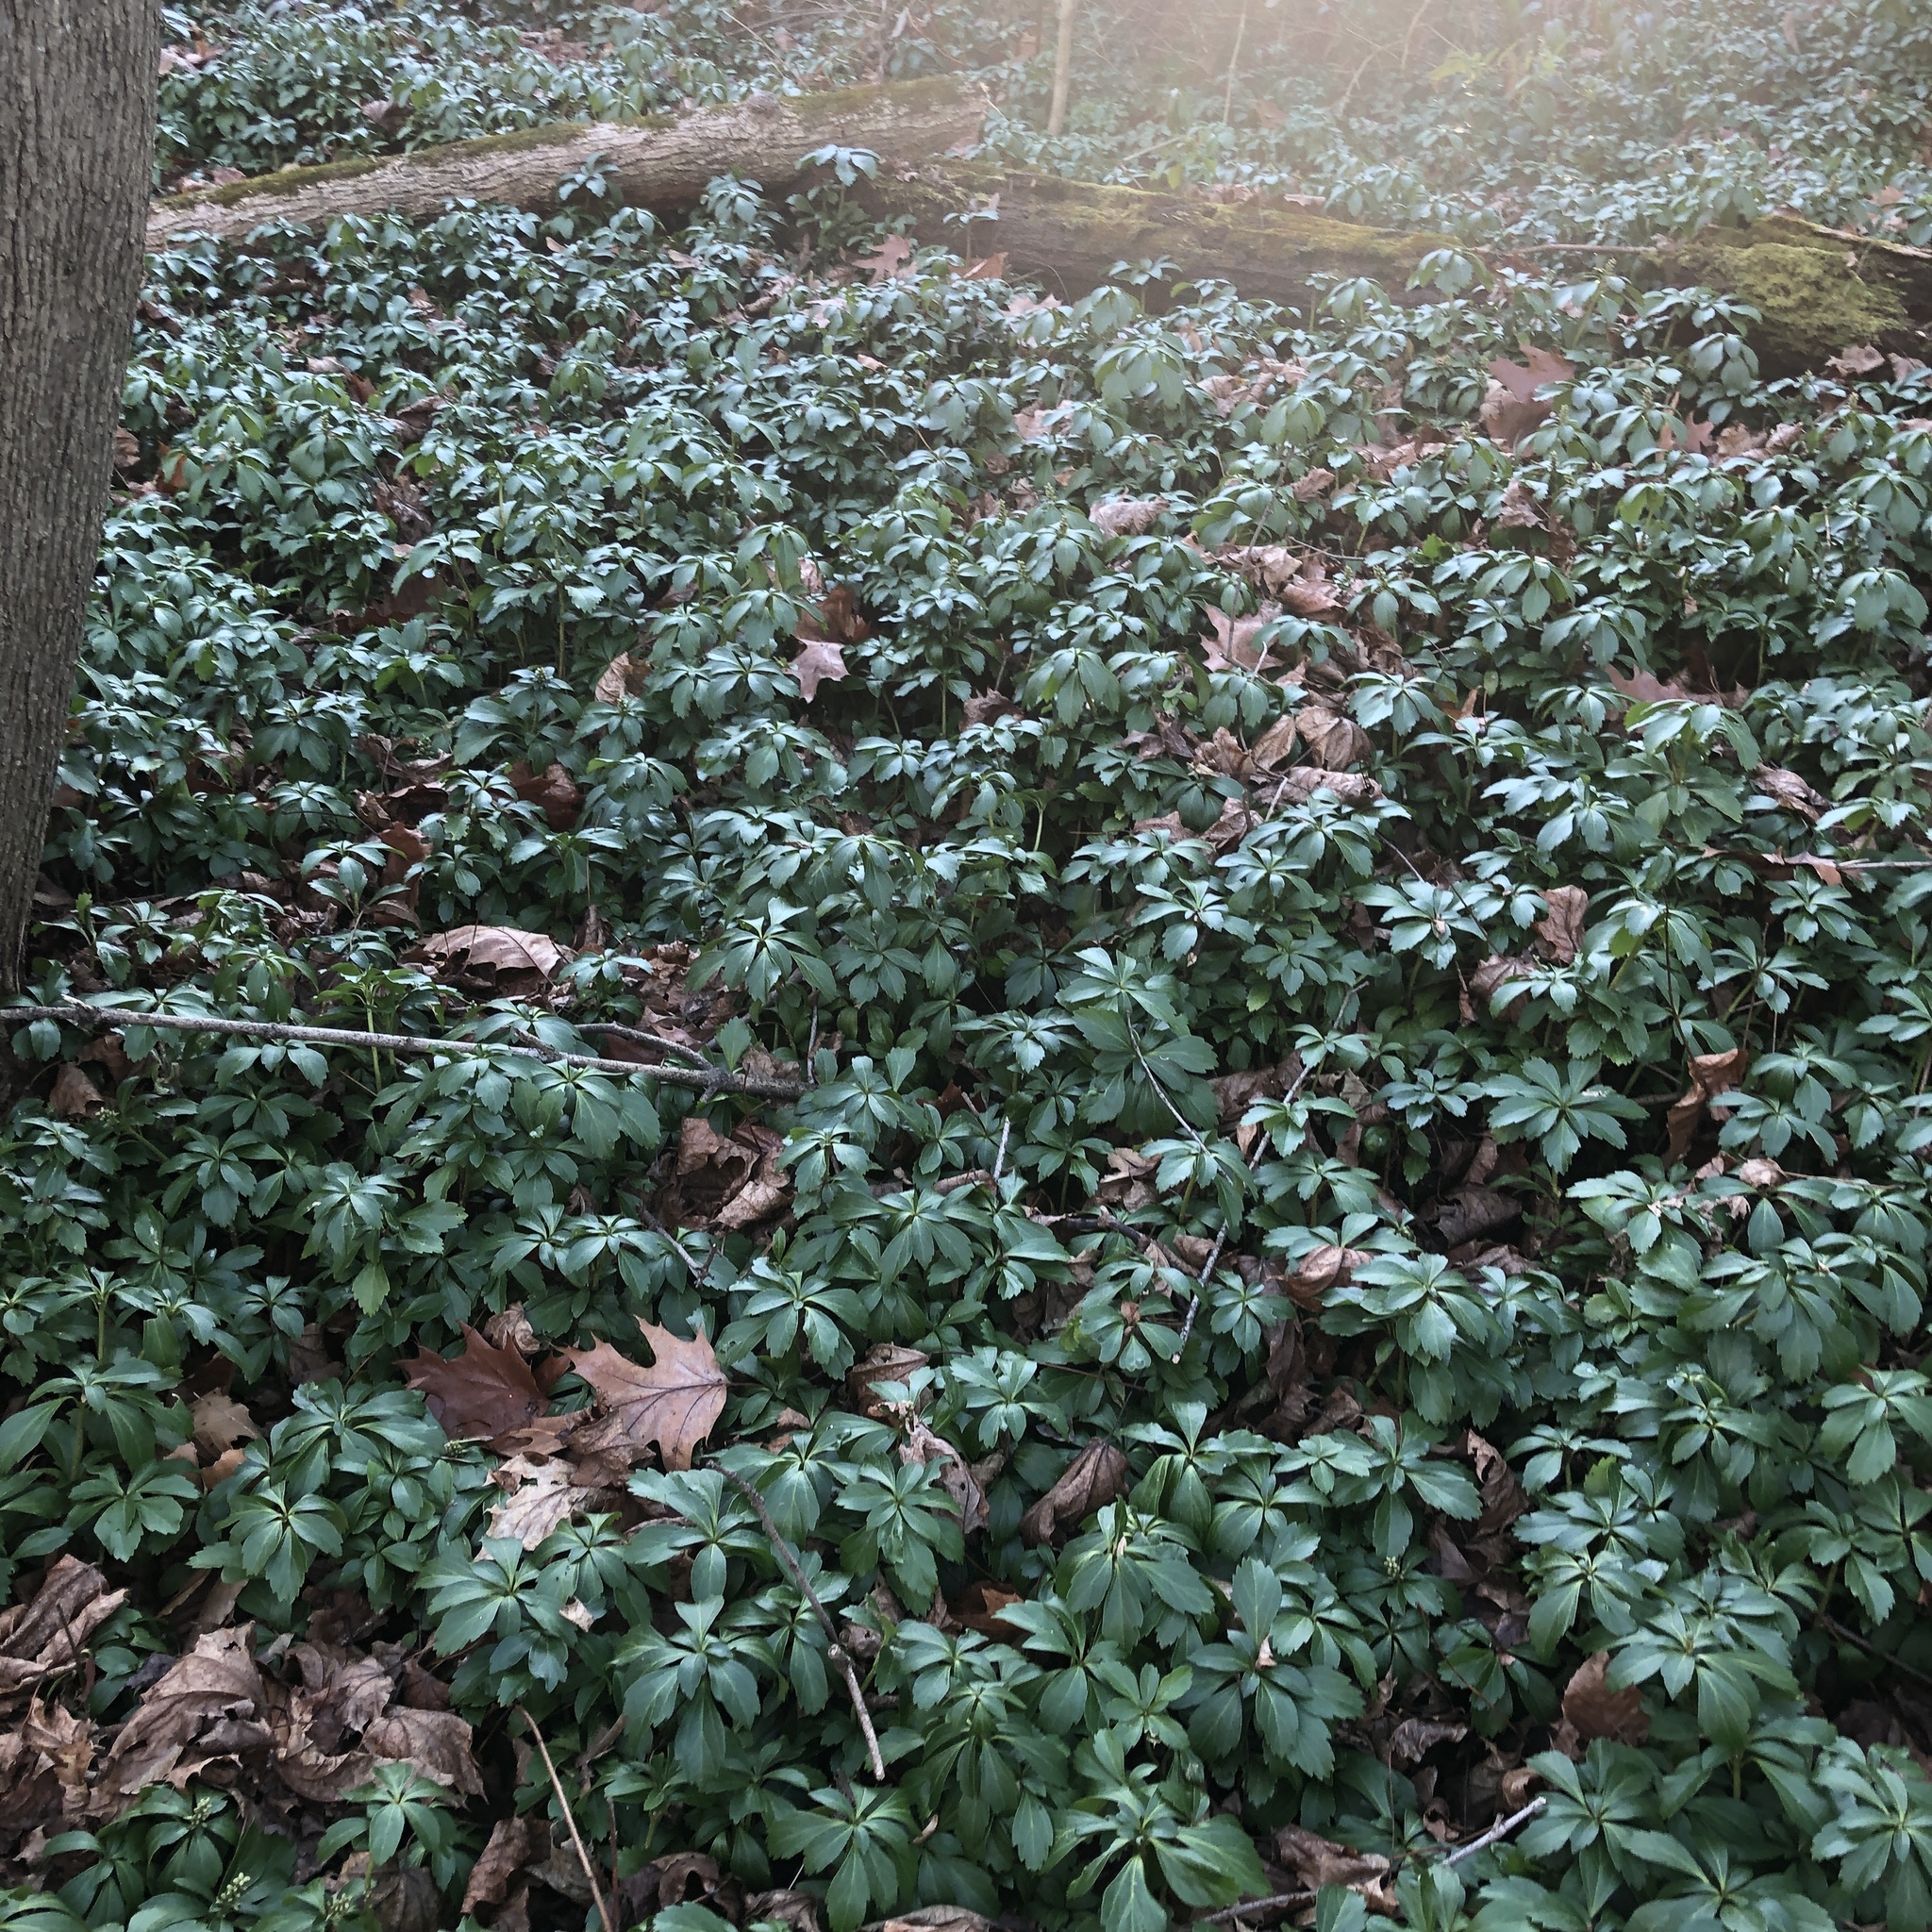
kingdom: Plantae
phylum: Tracheophyta
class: Magnoliopsida
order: Buxales
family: Buxaceae
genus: Pachysandra
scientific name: Pachysandra terminalis
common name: Japanese pachysandra
